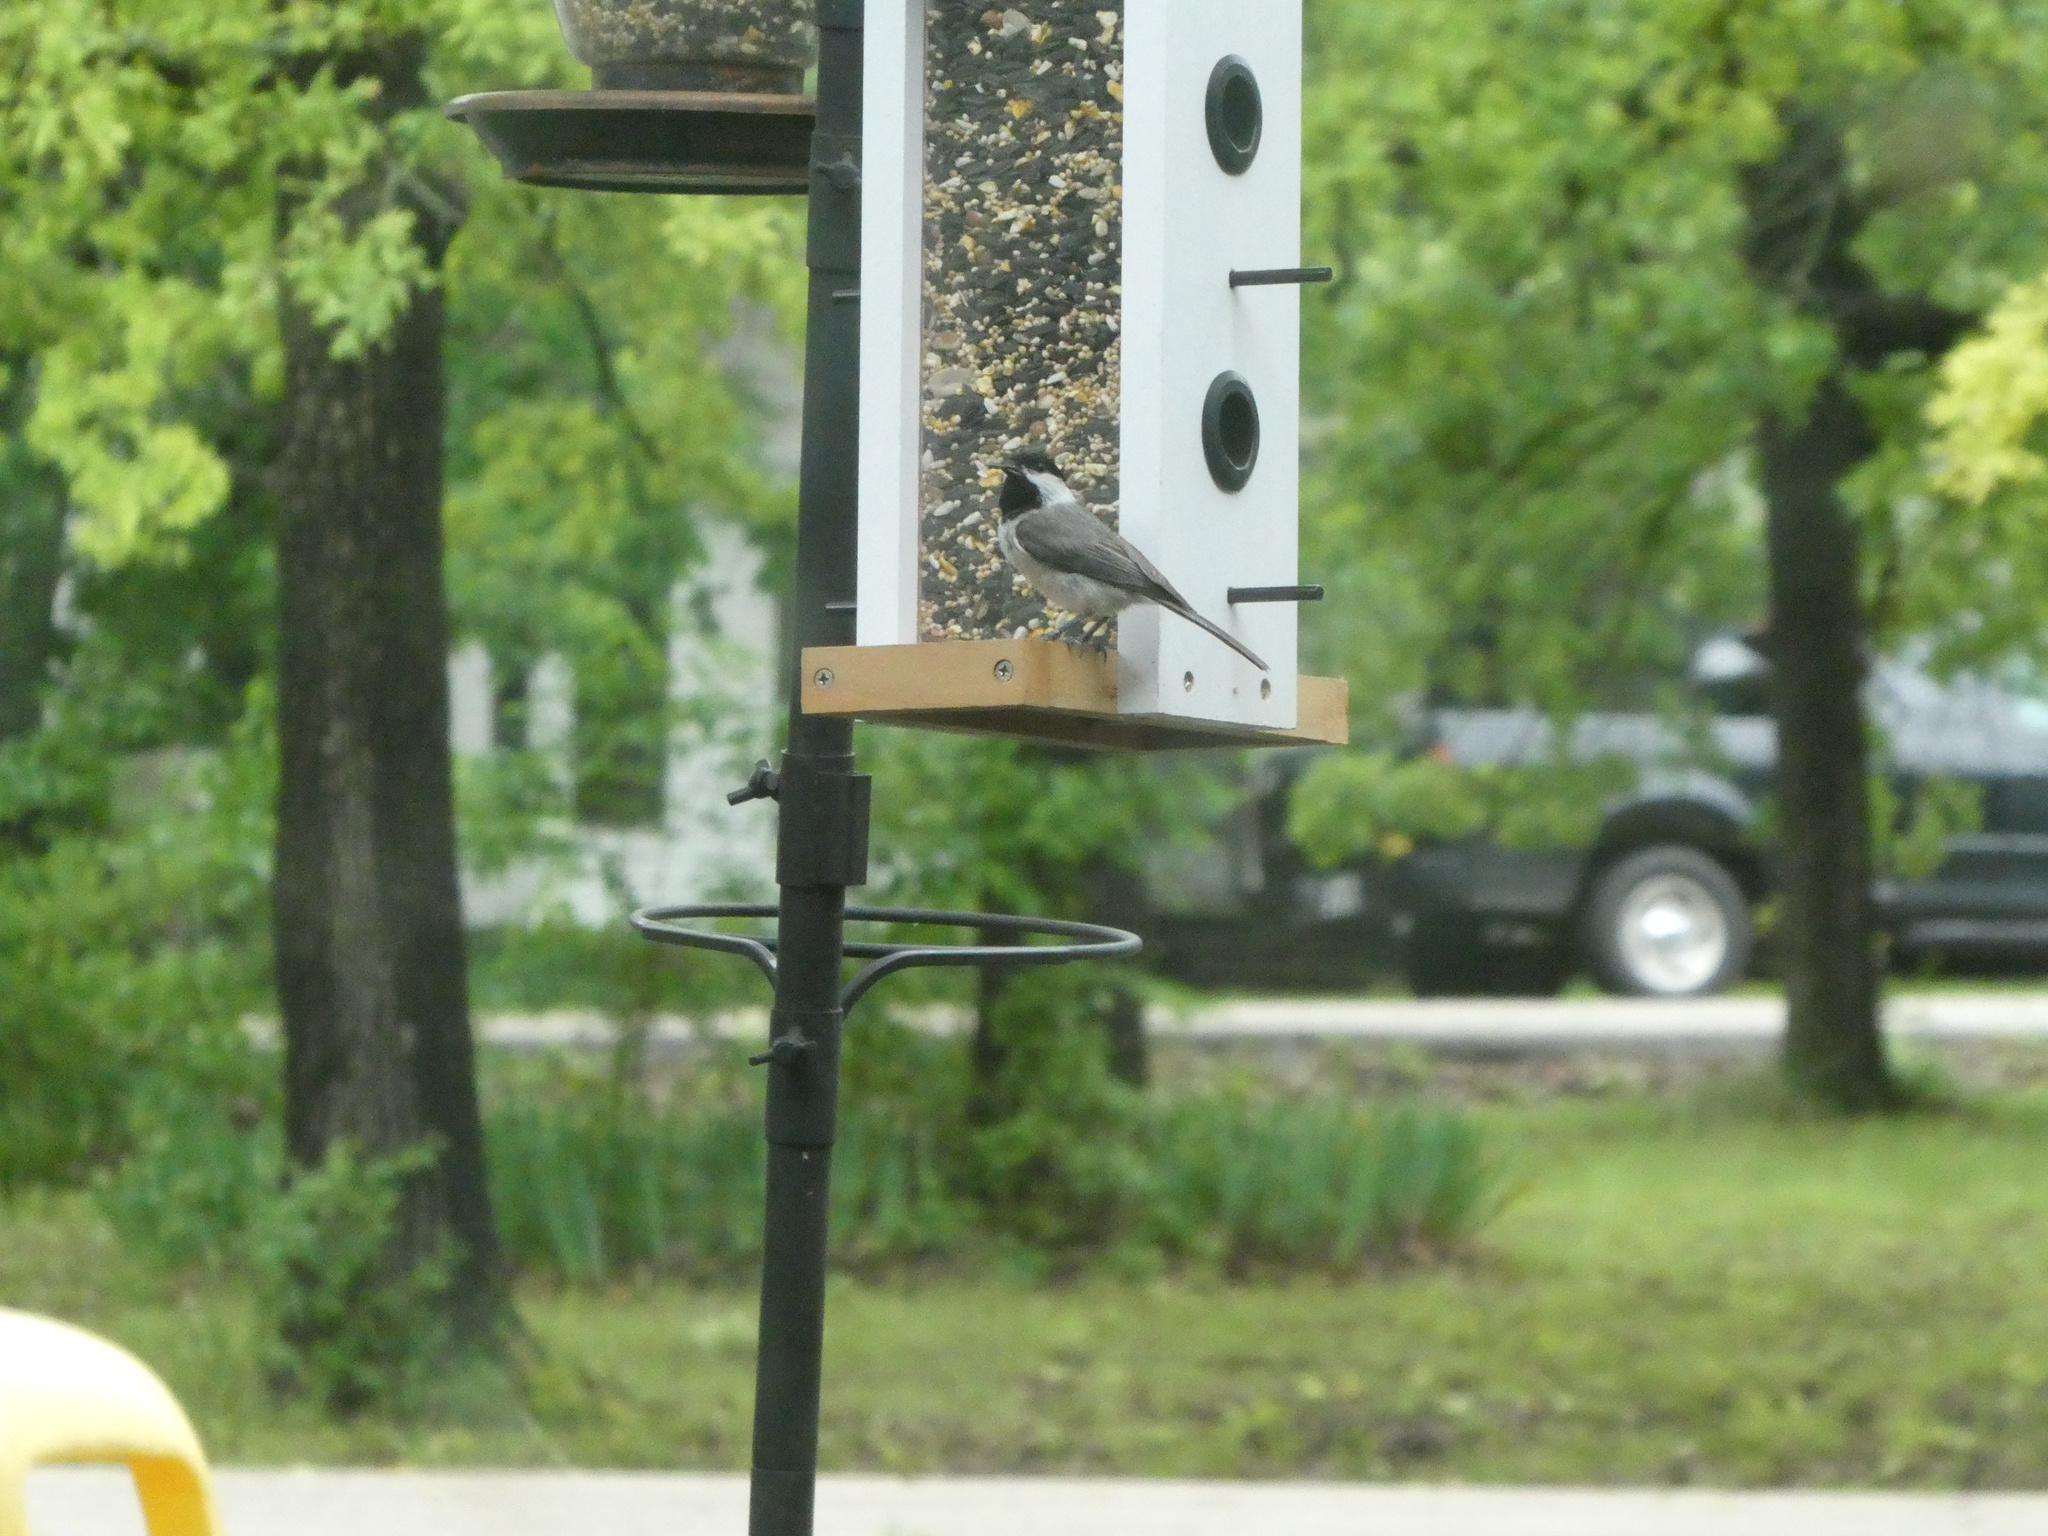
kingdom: Animalia
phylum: Chordata
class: Aves
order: Passeriformes
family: Paridae
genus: Poecile
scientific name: Poecile carolinensis
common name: Carolina chickadee
